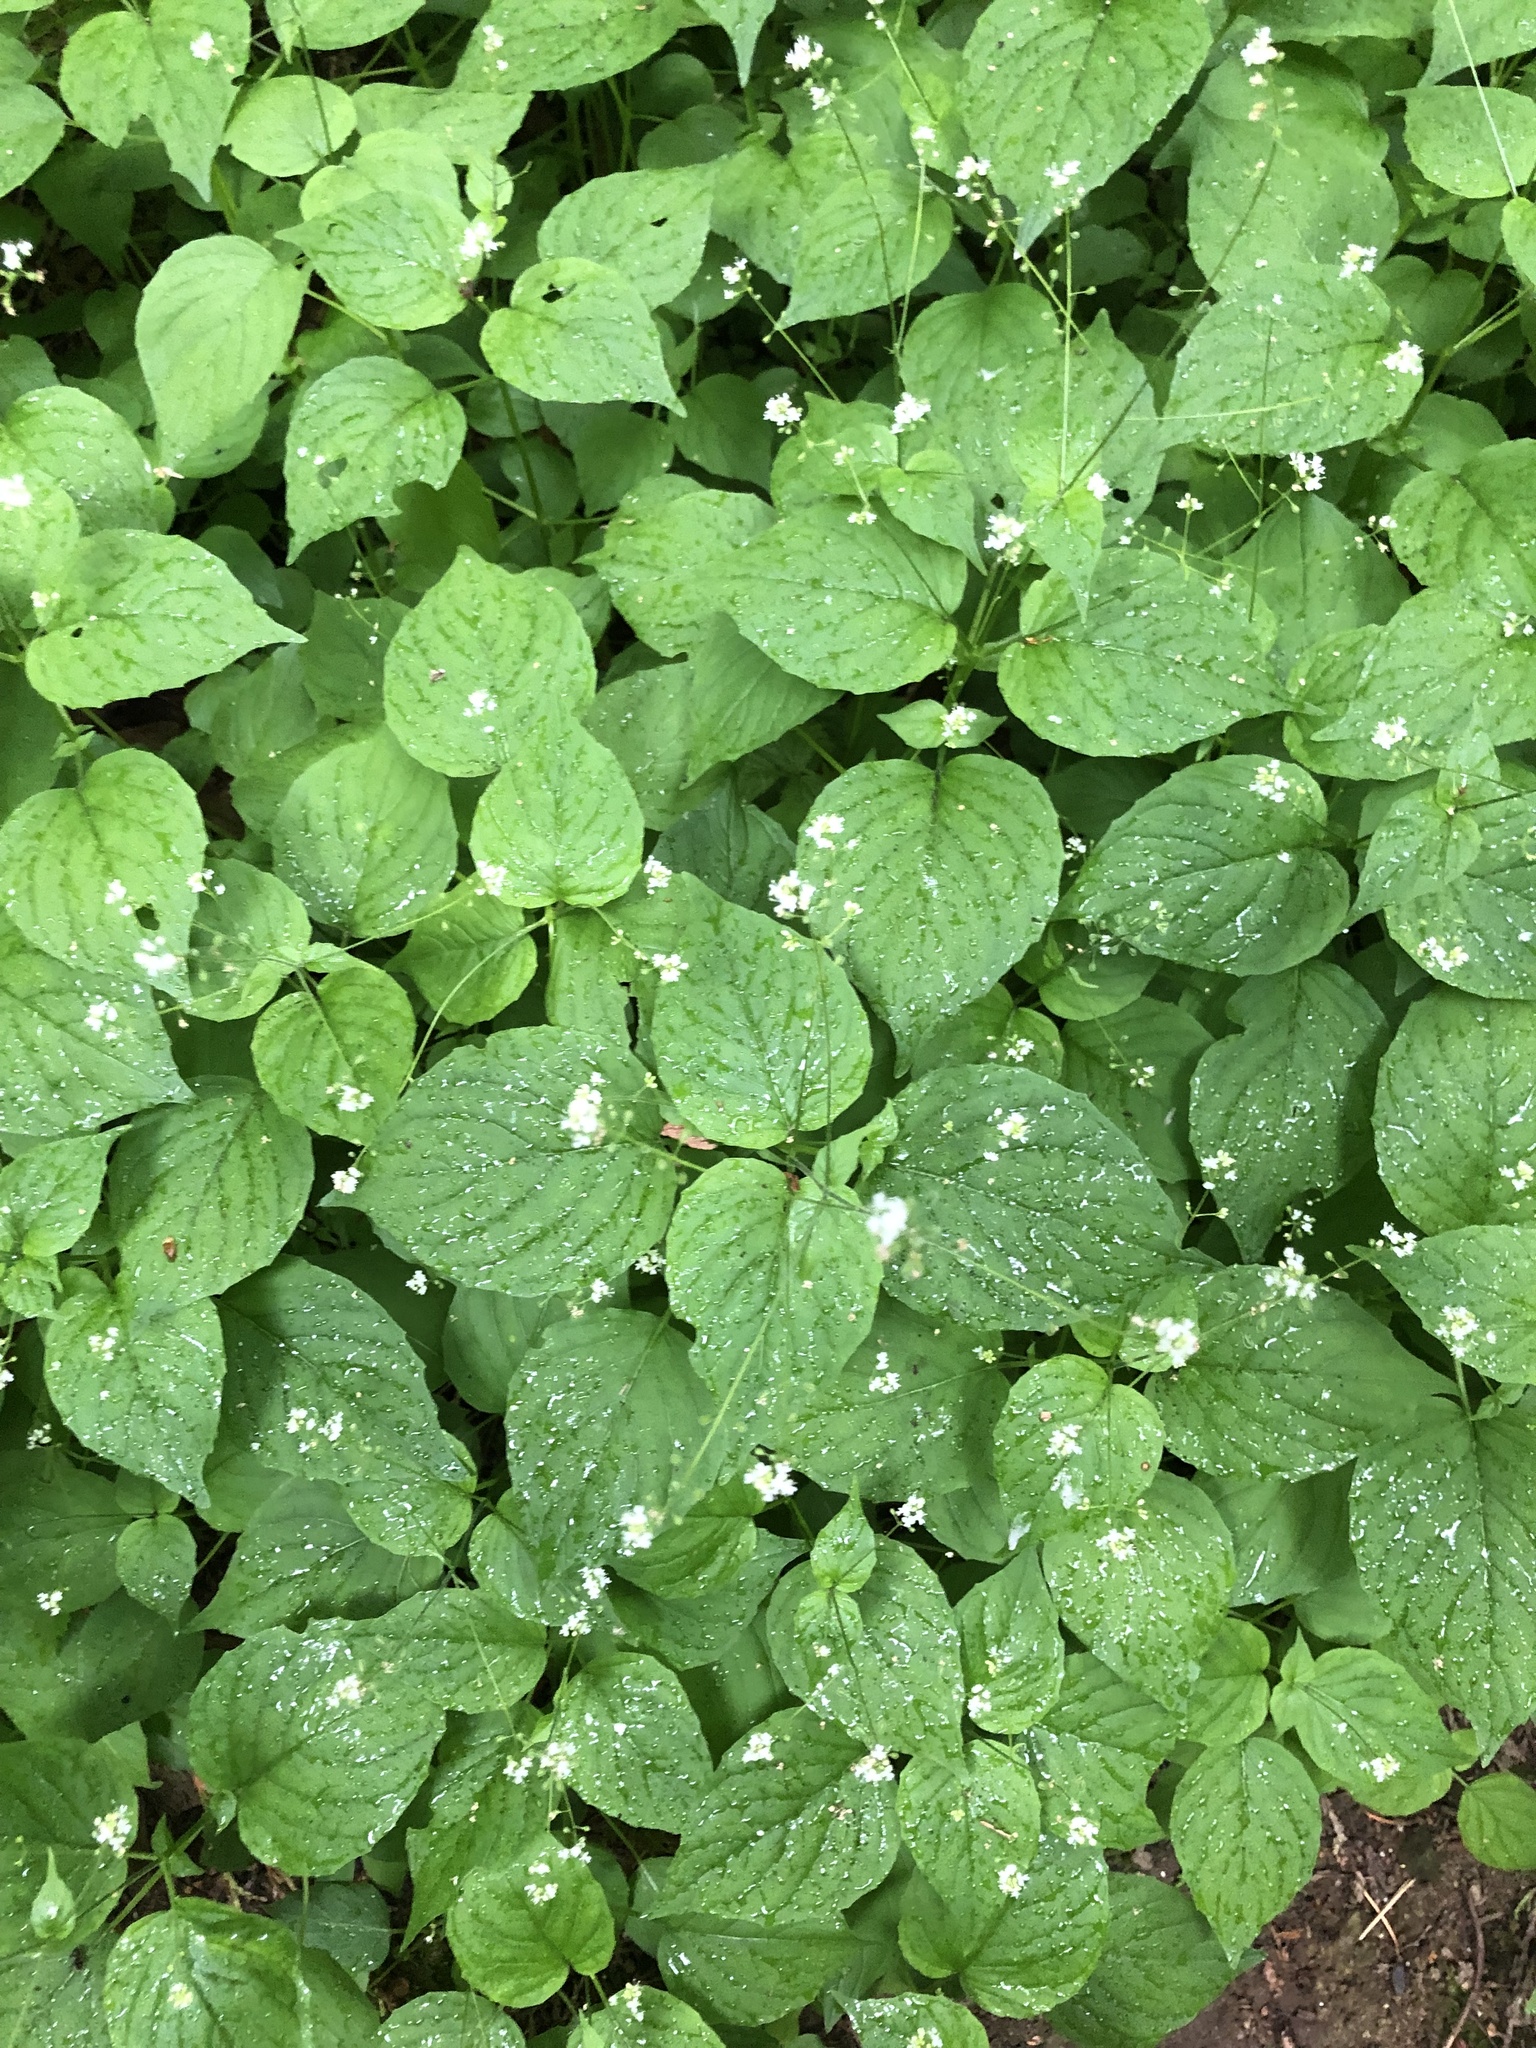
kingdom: Plantae
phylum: Tracheophyta
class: Magnoliopsida
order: Myrtales
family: Onagraceae
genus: Circaea
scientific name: Circaea alpina
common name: Alpine enchanter's-nightshade
